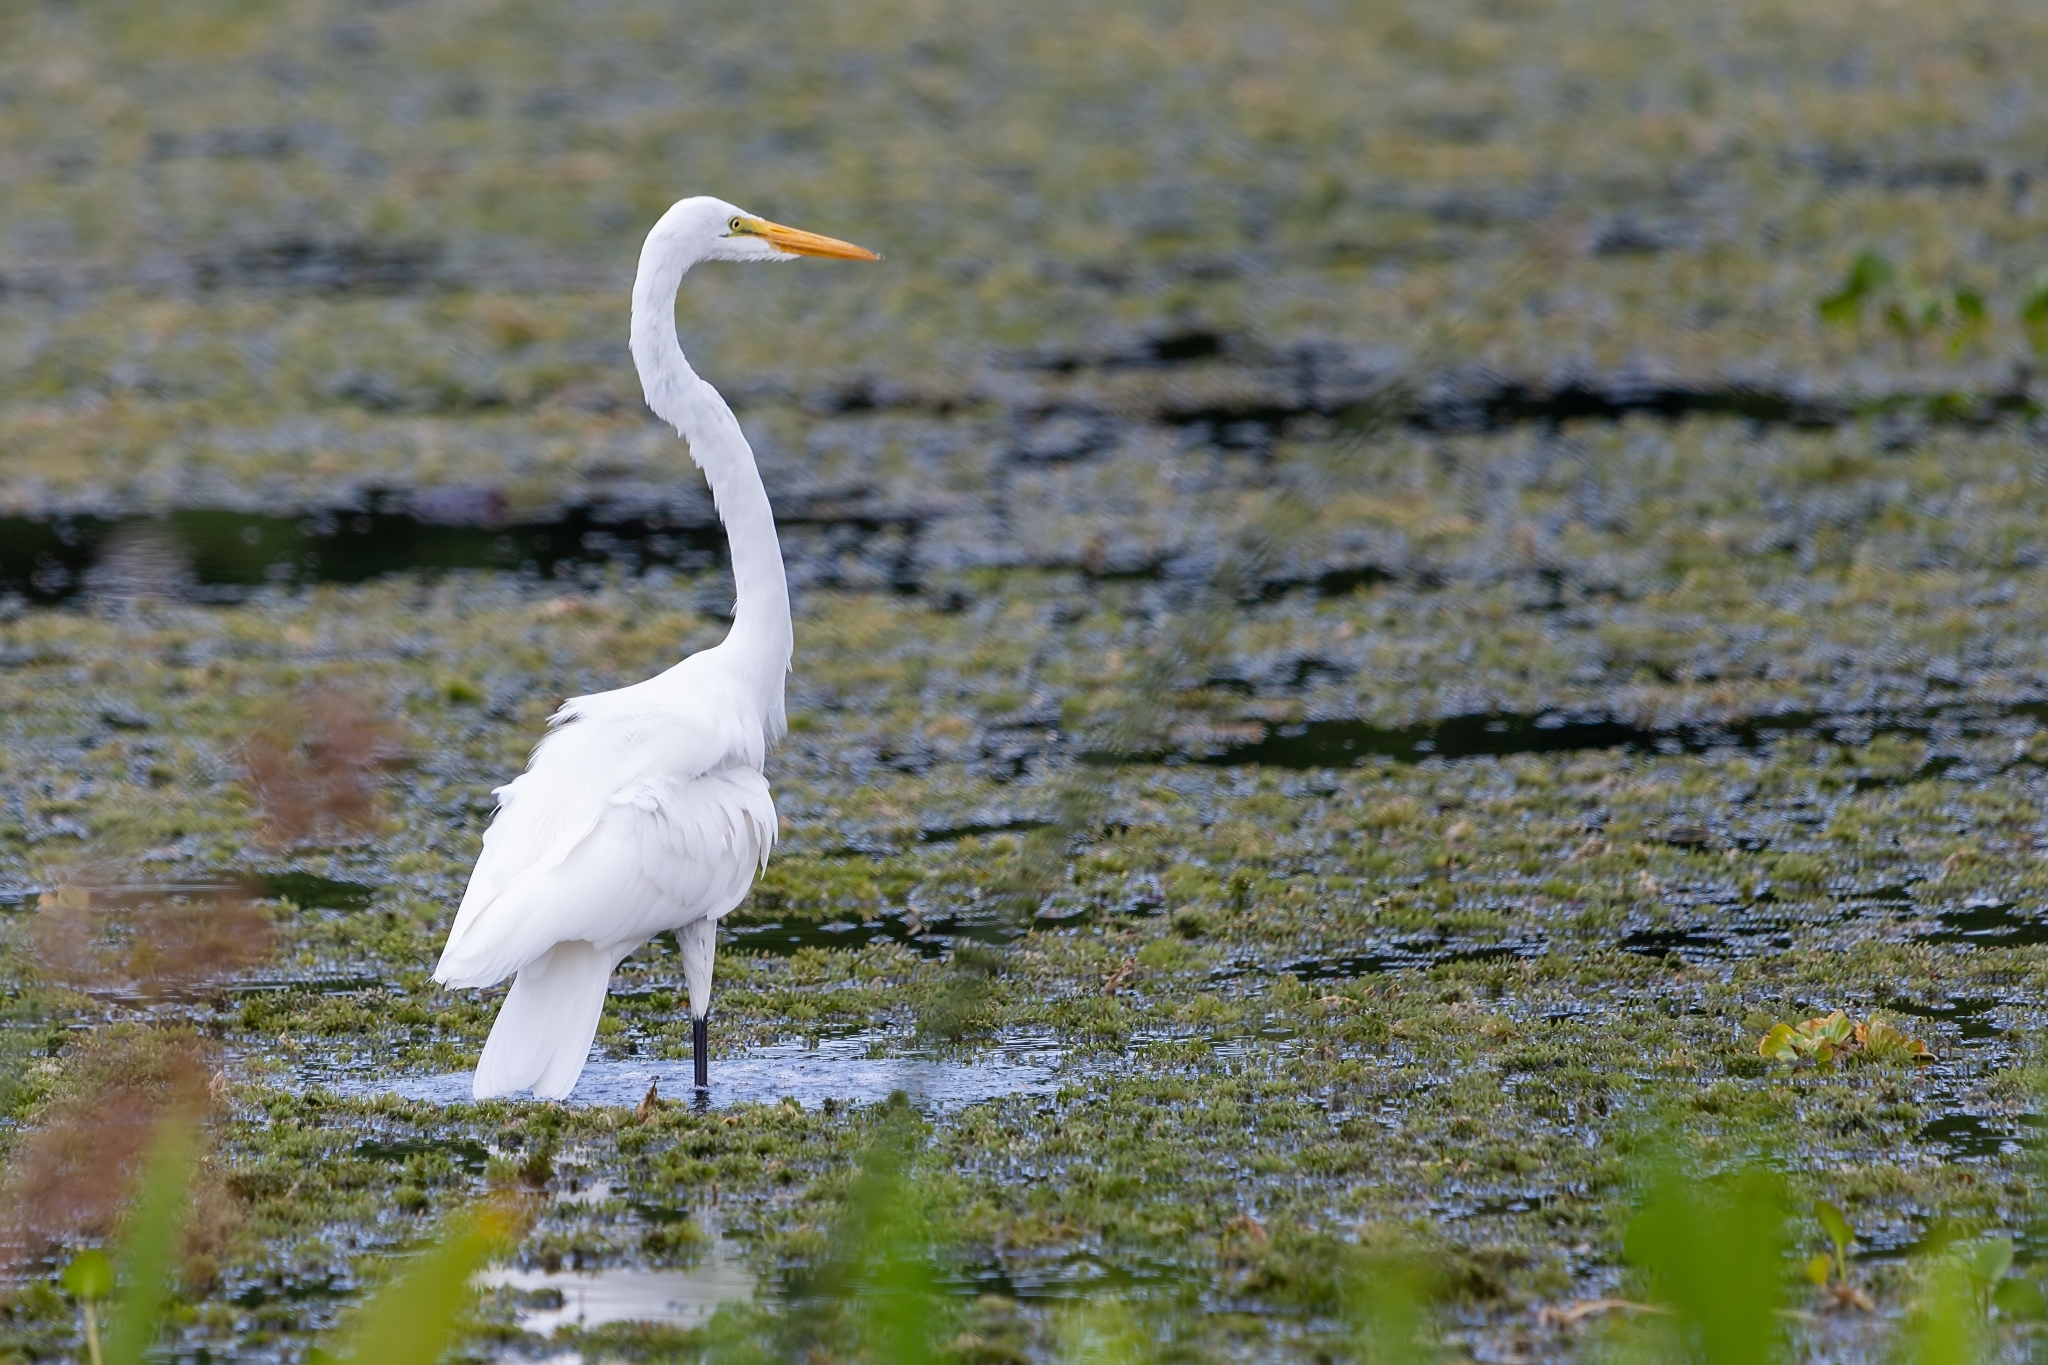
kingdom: Animalia
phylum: Chordata
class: Aves
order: Pelecaniformes
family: Ardeidae
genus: Ardea
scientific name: Ardea alba
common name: Great egret
